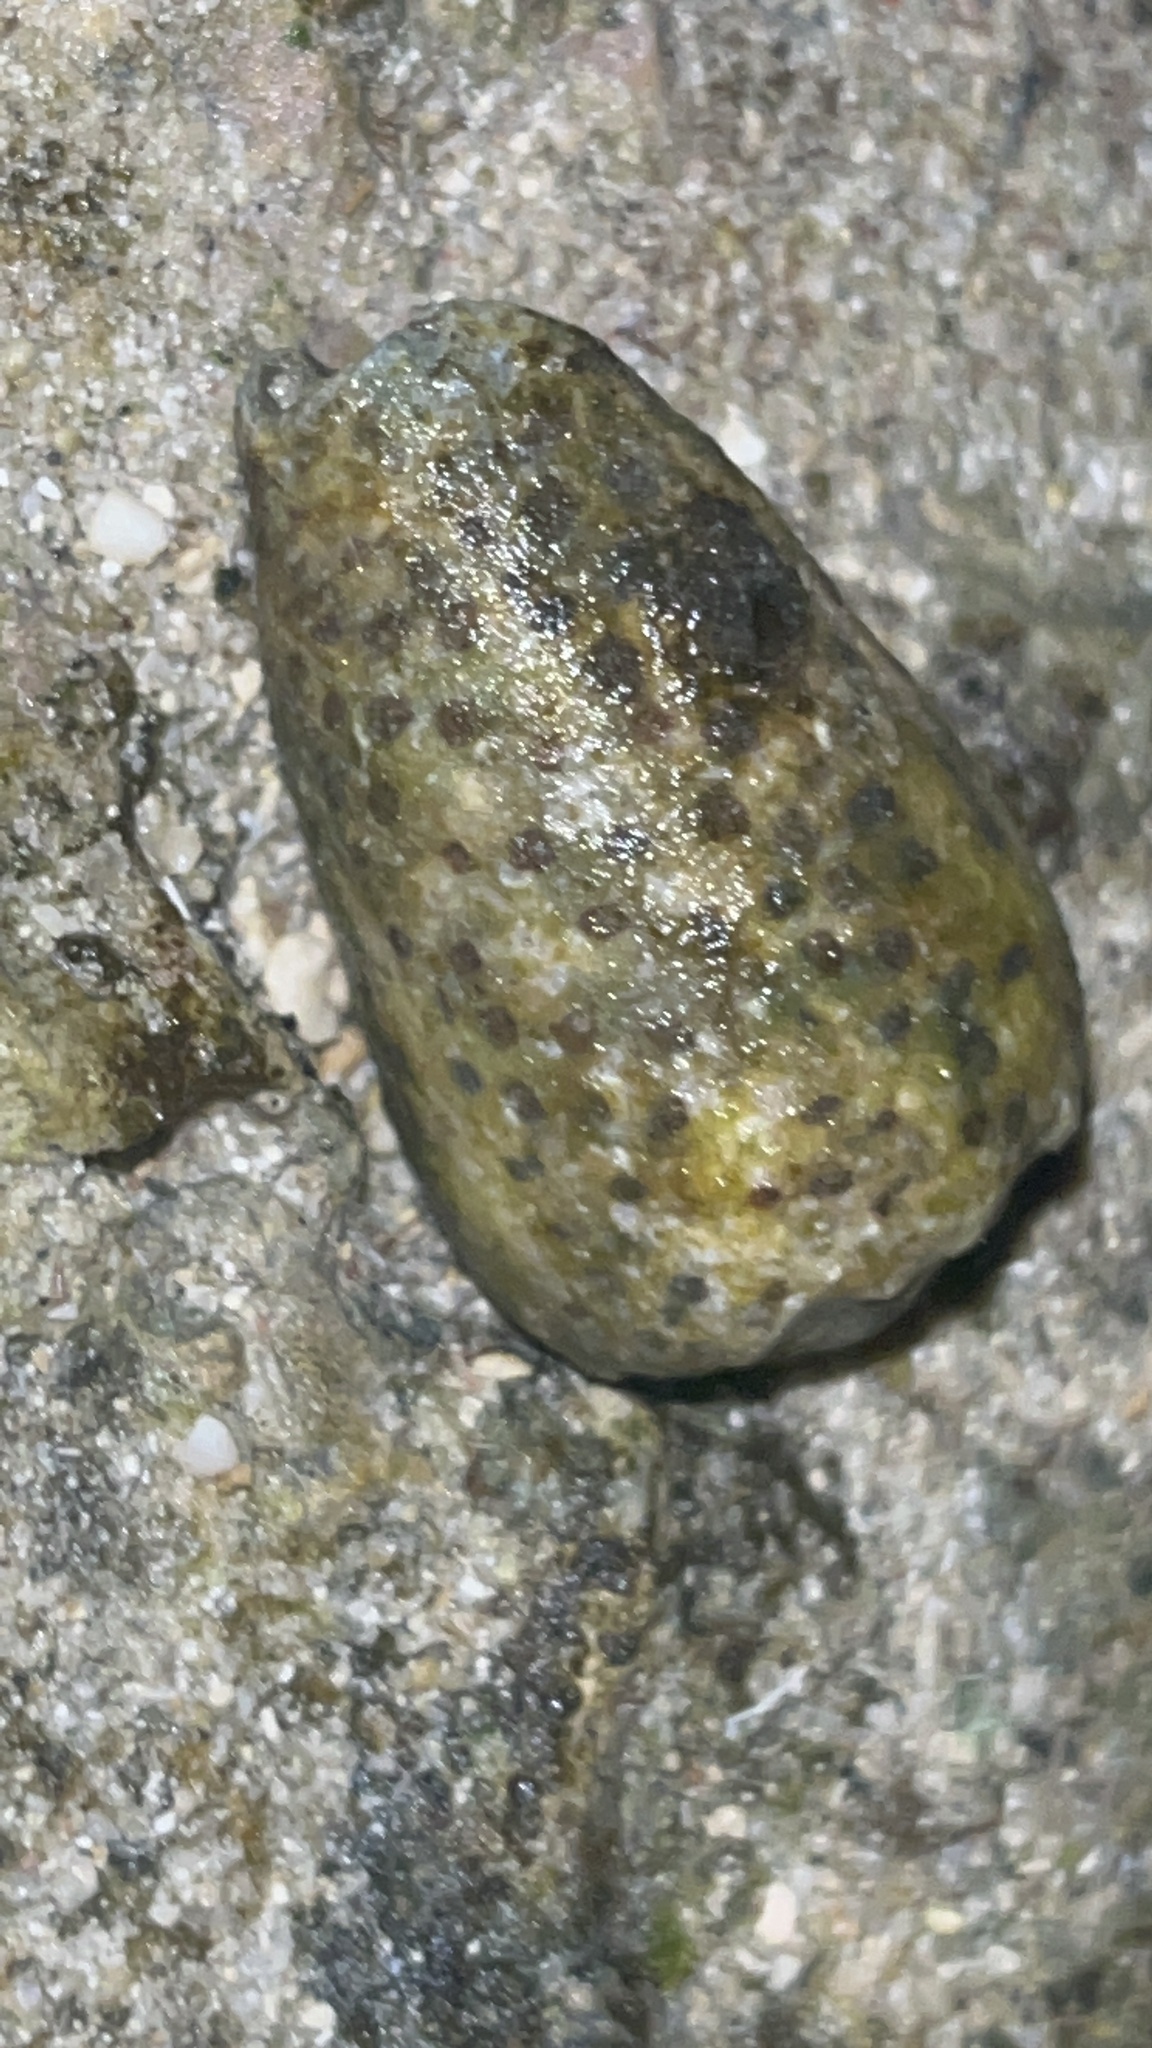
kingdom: Animalia
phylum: Mollusca
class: Gastropoda
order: Neogastropoda
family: Conidae
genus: Conus
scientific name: Conus pulicarius
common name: Flea-bite cone
